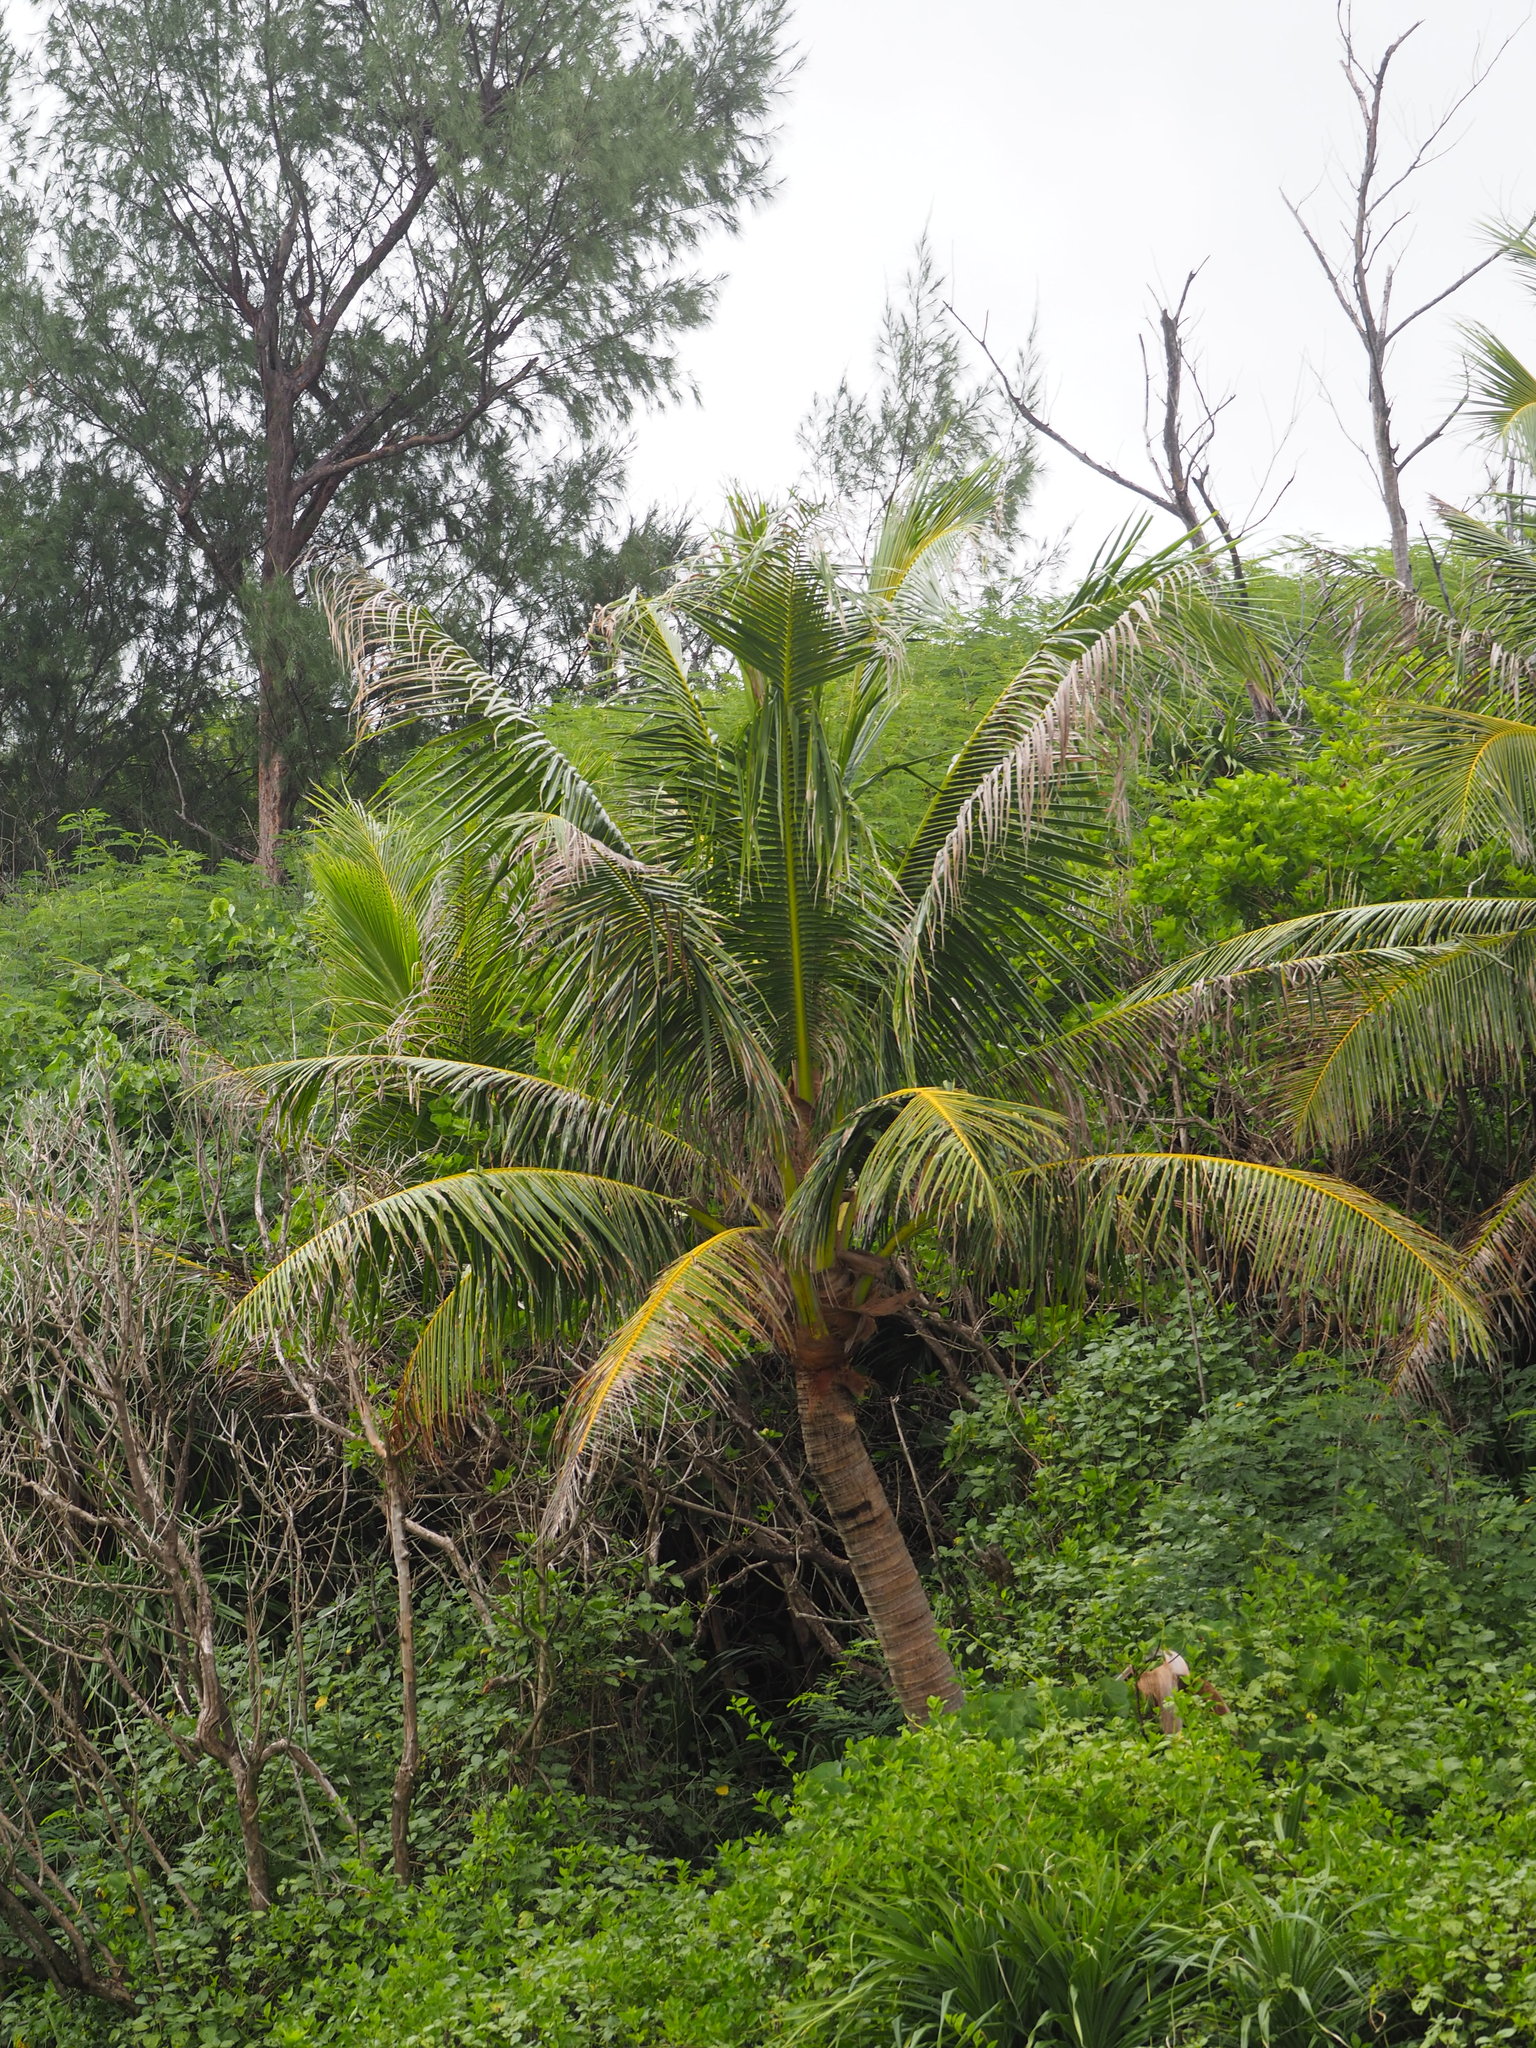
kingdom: Plantae
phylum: Tracheophyta
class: Liliopsida
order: Arecales
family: Arecaceae
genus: Cocos
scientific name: Cocos nucifera
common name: Coconut palm
